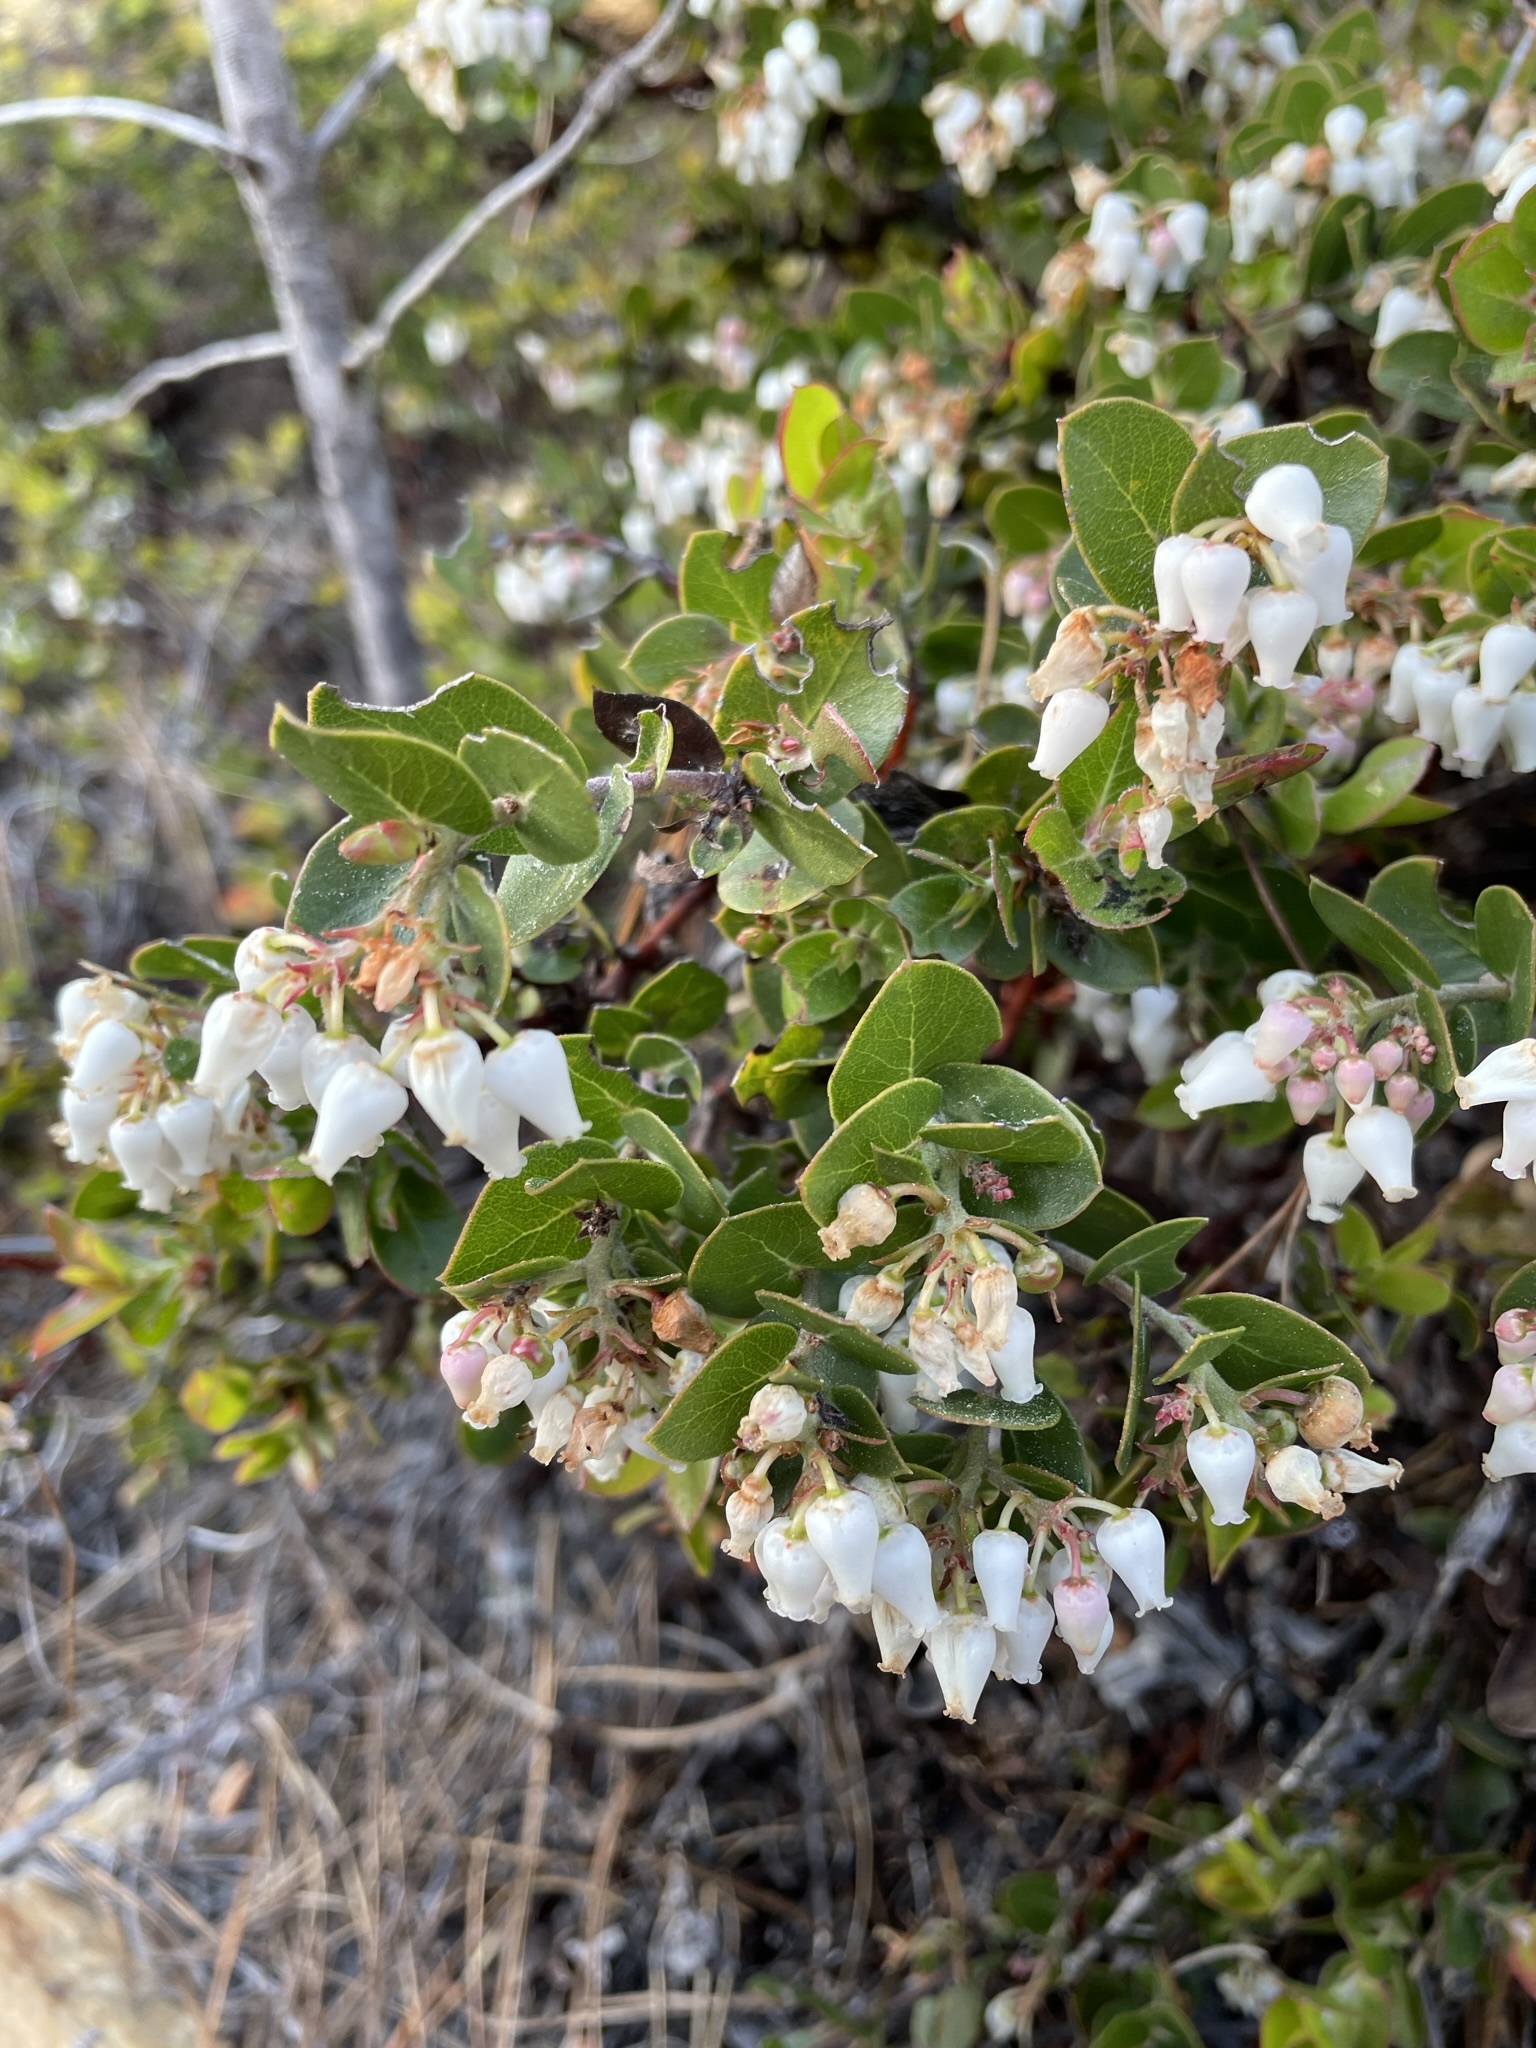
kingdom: Plantae
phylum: Tracheophyta
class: Magnoliopsida
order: Ericales
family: Ericaceae
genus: Arctostaphylos
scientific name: Arctostaphylos osoensis
